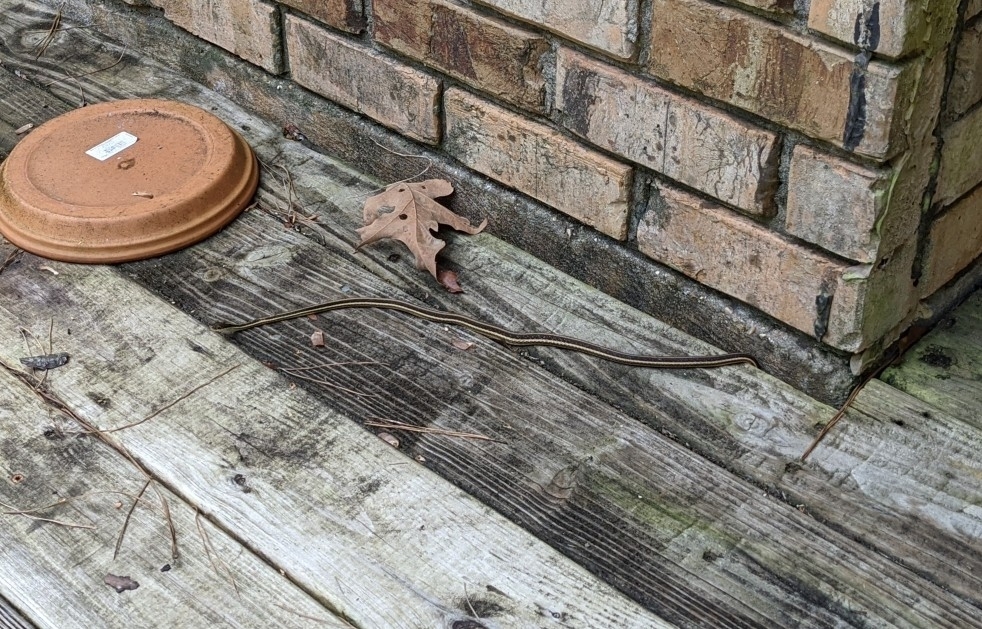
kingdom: Animalia
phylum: Chordata
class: Squamata
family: Colubridae
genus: Thamnophis
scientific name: Thamnophis proximus
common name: Western ribbon snake
